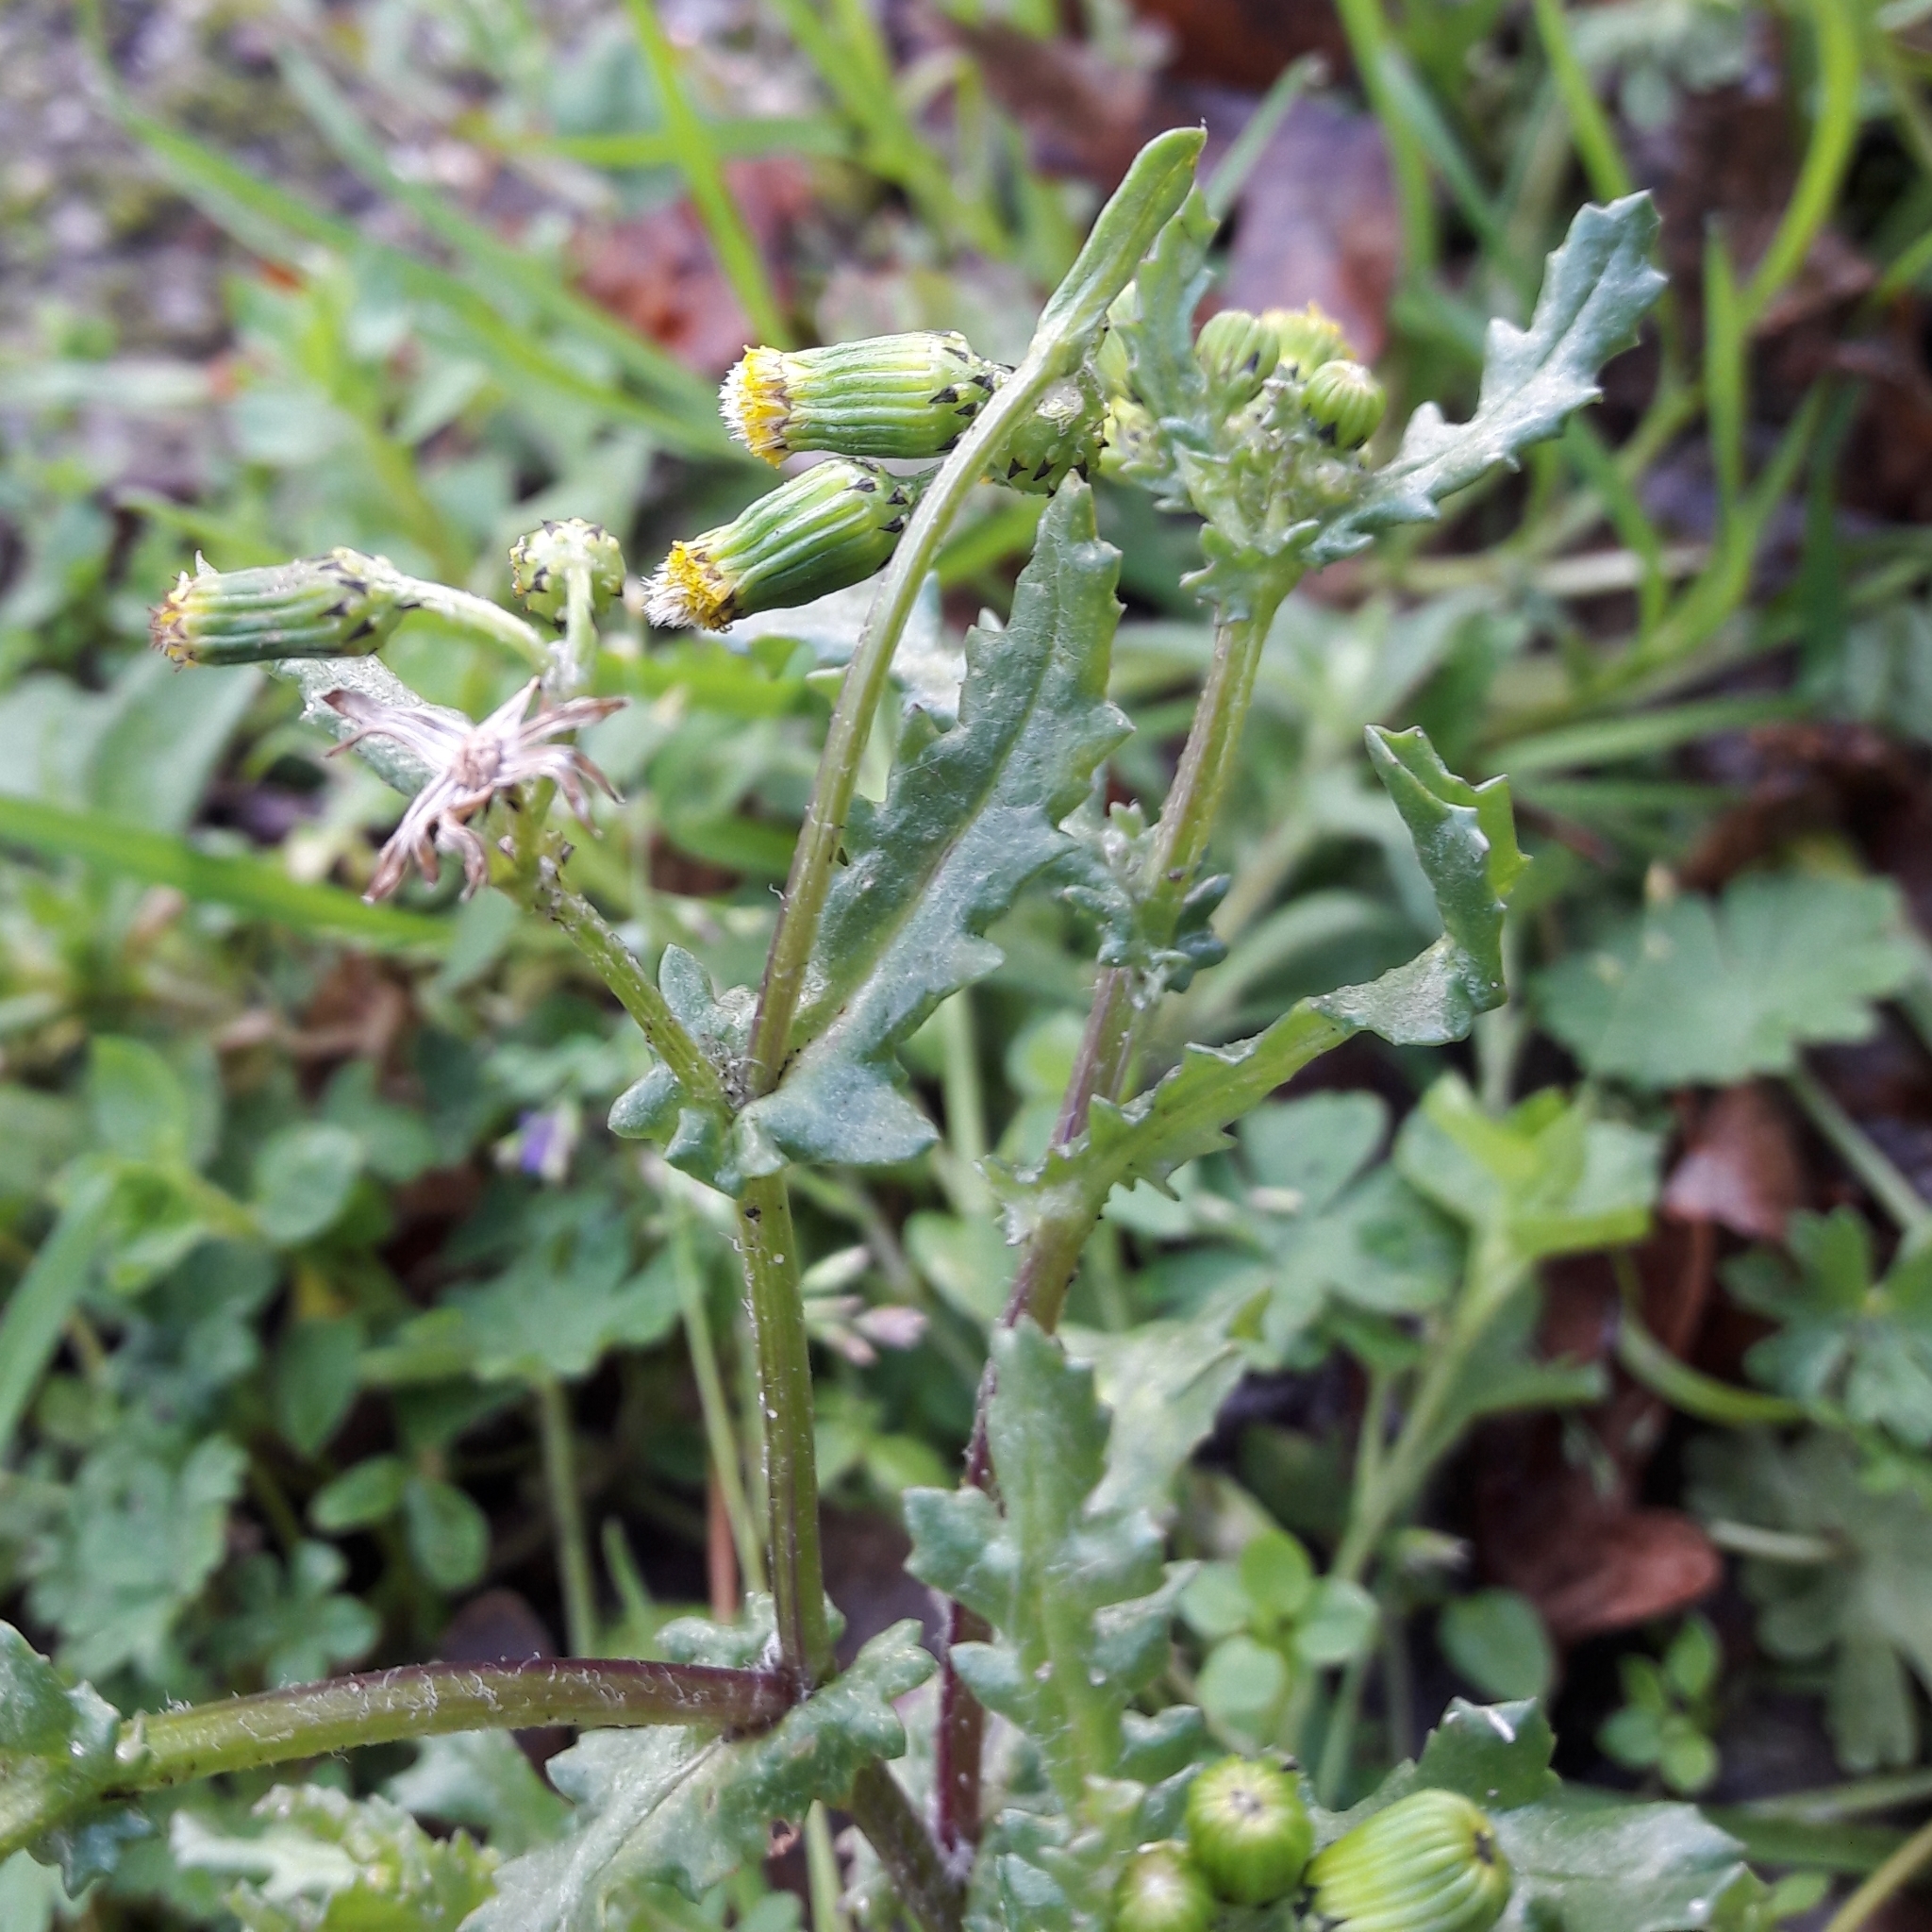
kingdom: Plantae
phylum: Tracheophyta
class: Magnoliopsida
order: Asterales
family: Asteraceae
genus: Senecio
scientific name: Senecio vulgaris
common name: Old-man-in-the-spring
